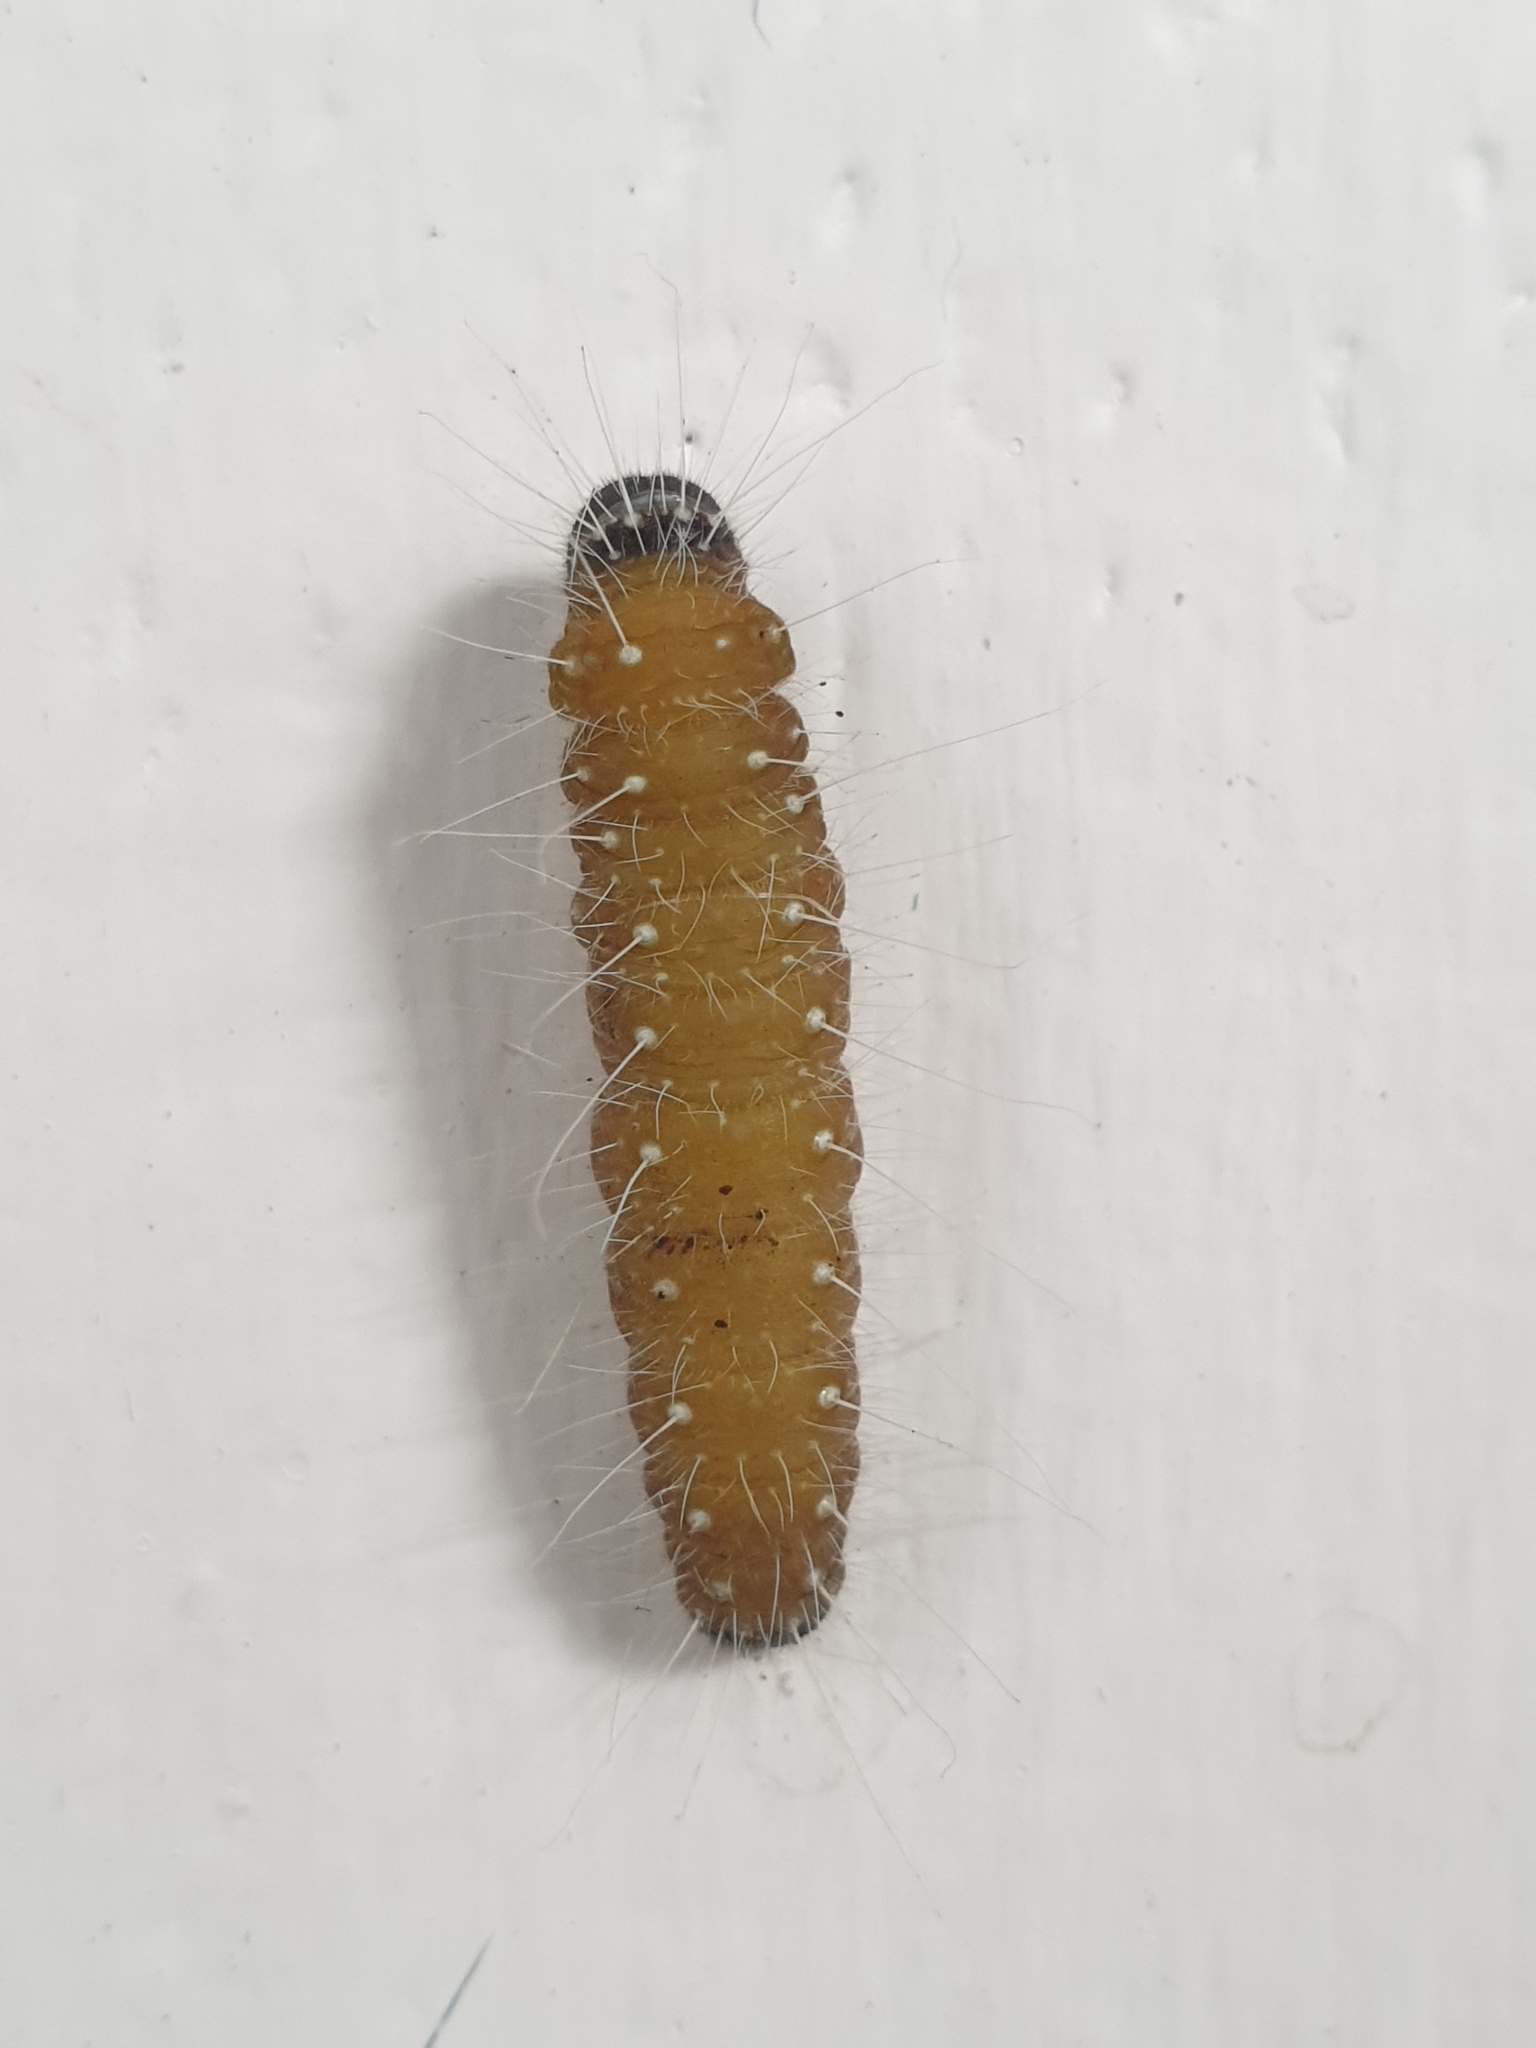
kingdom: Animalia
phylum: Arthropoda
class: Insecta
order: Lepidoptera
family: Pieridae
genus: Delias
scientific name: Delias eucharis
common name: Common jezebel
